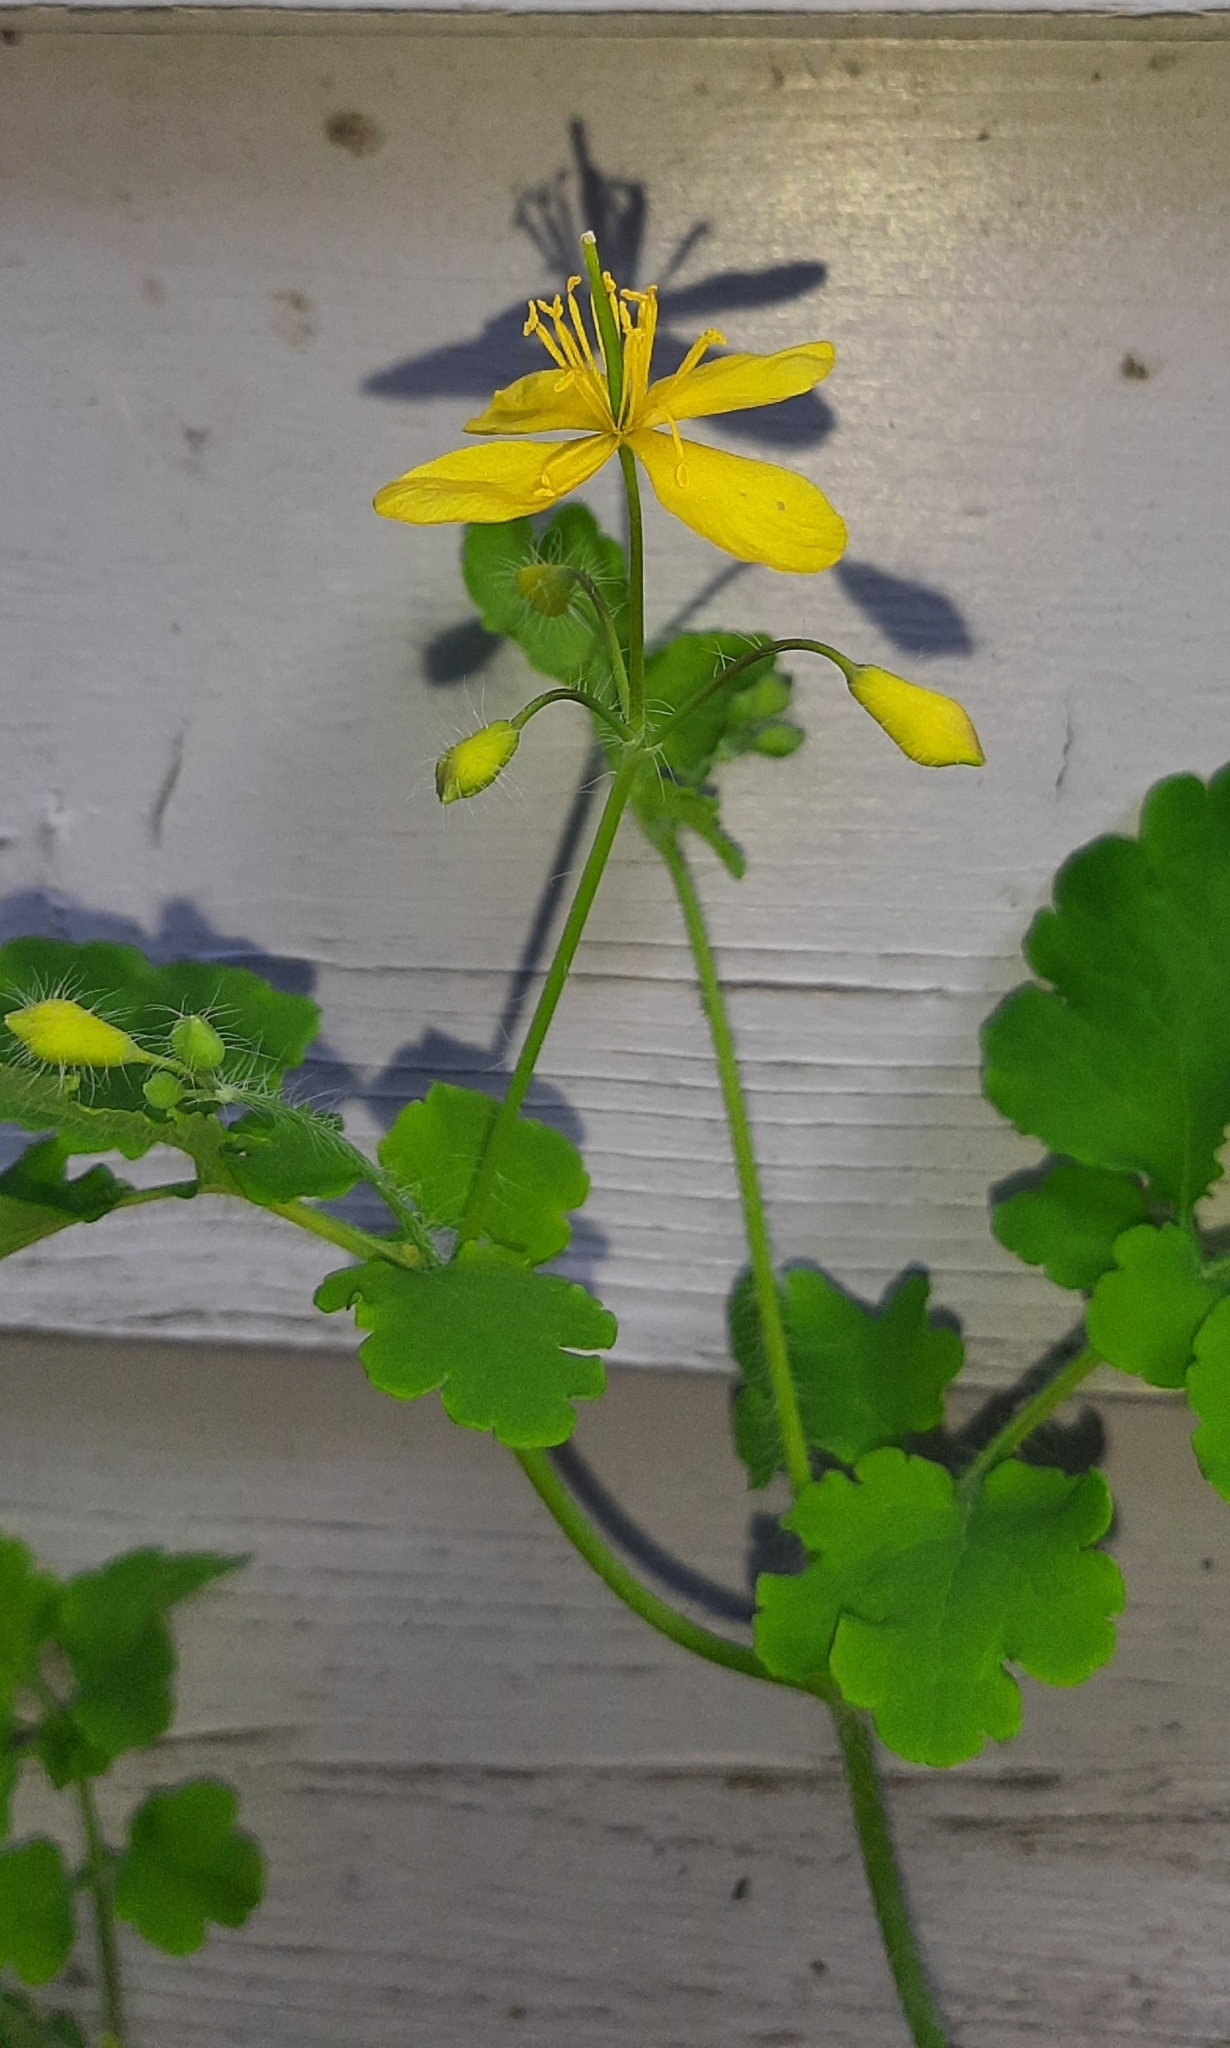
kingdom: Plantae
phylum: Tracheophyta
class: Magnoliopsida
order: Ranunculales
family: Papaveraceae
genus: Chelidonium
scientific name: Chelidonium majus
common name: Greater celandine
